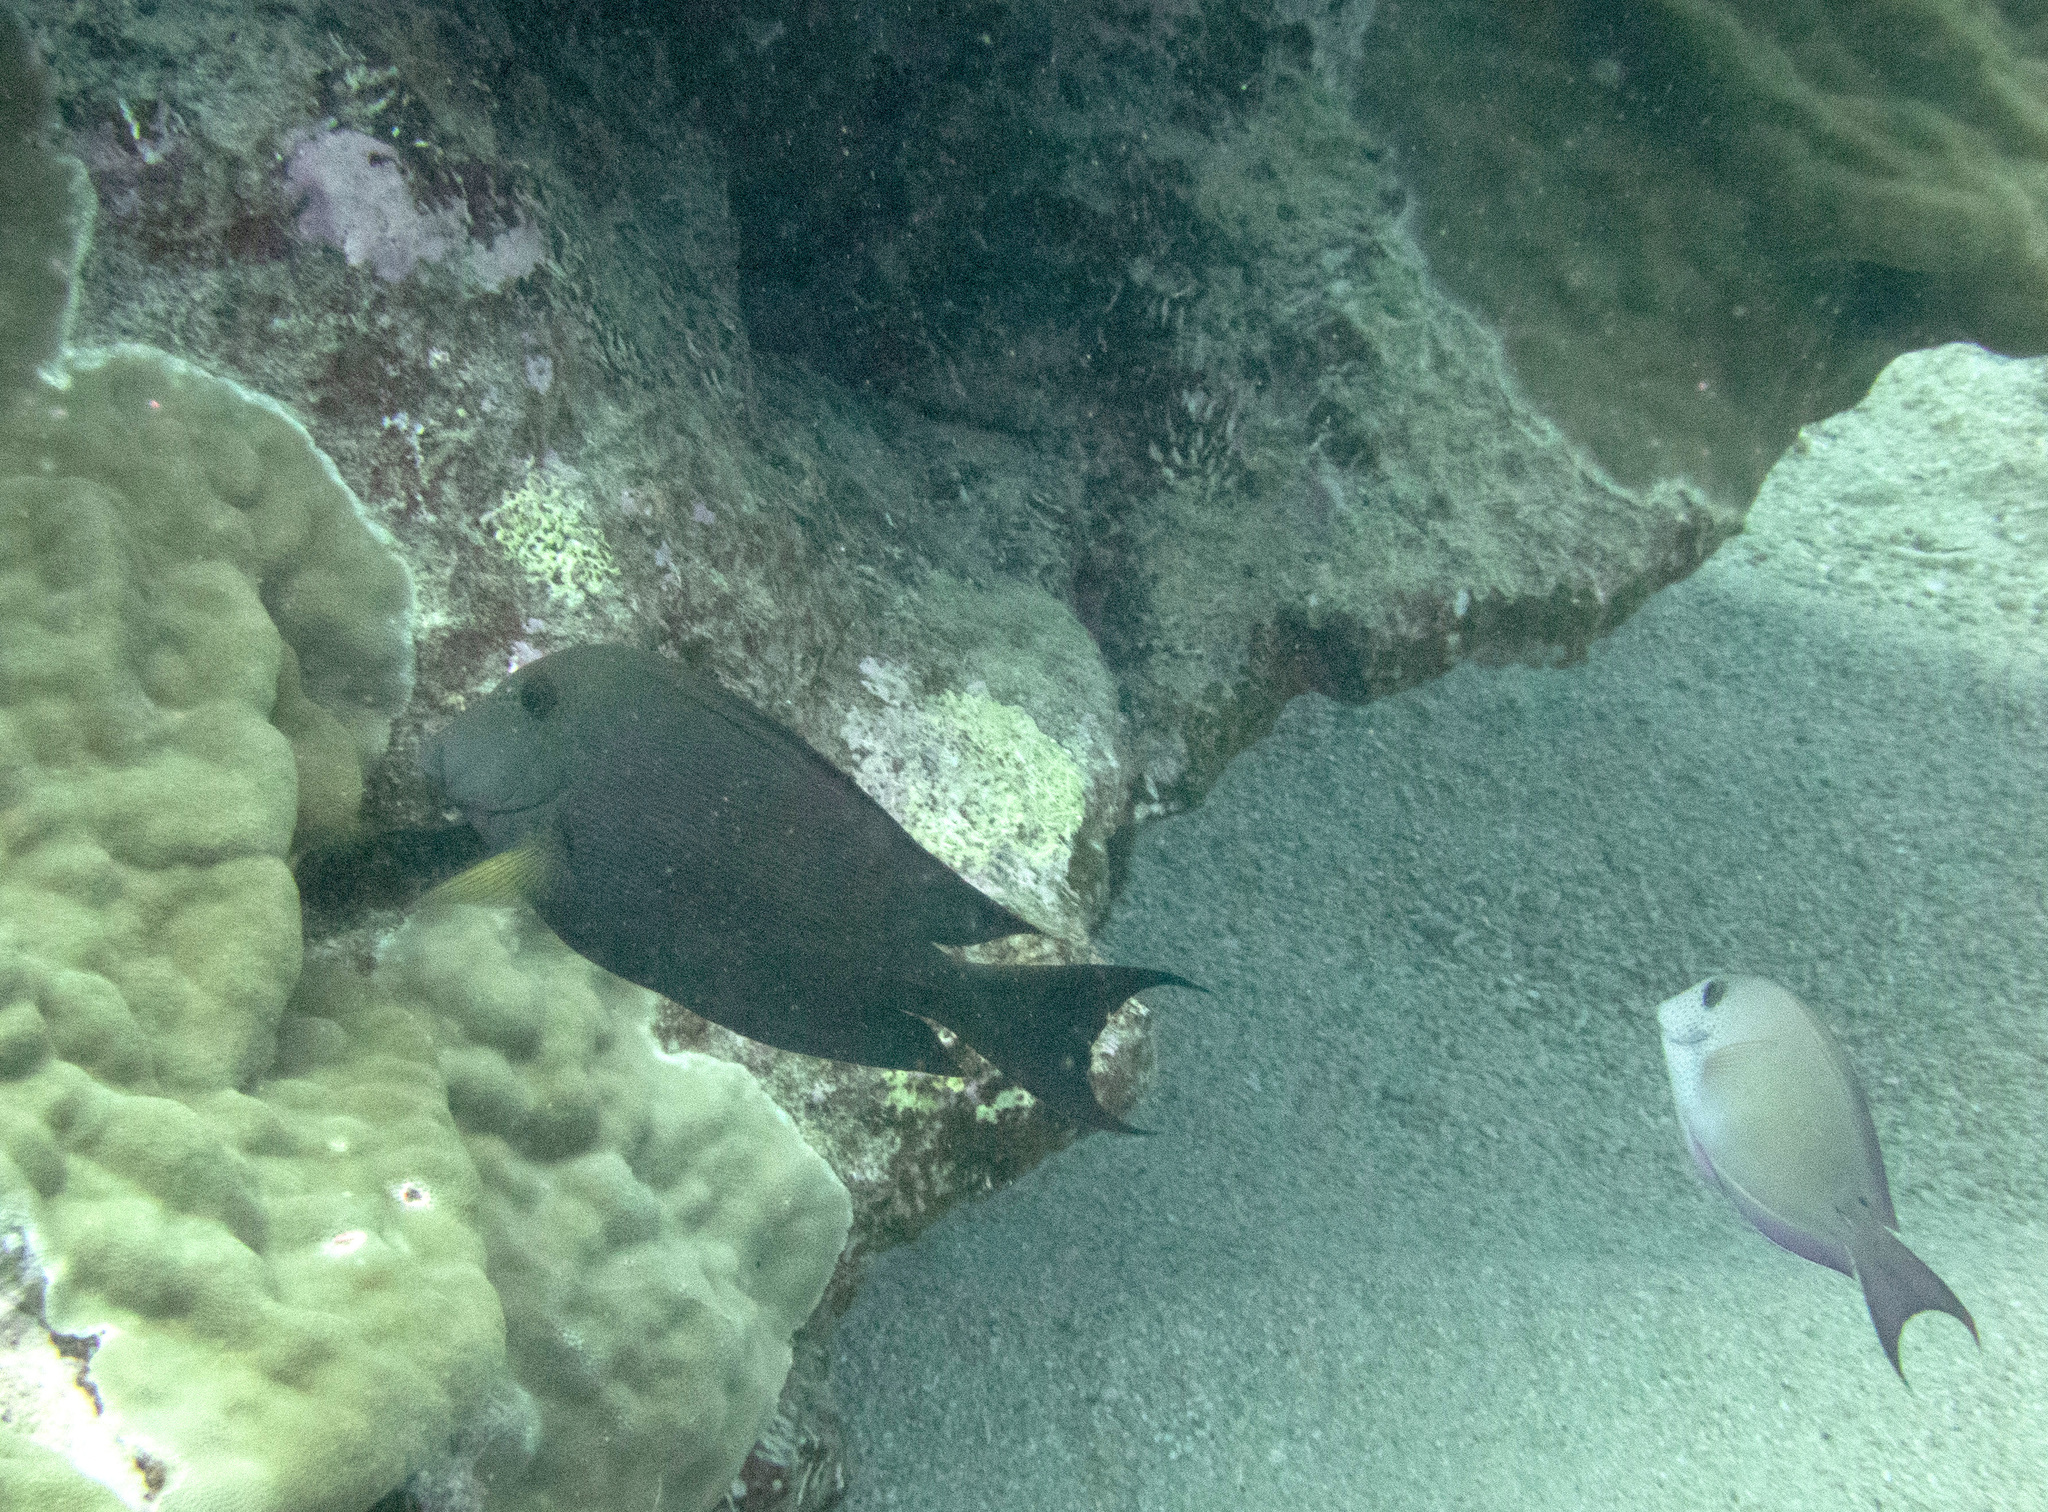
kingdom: Animalia
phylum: Chordata
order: Perciformes
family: Acanthuridae
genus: Acanthurus
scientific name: Acanthurus nigrofuscus
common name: Blackspot surgeonfish
